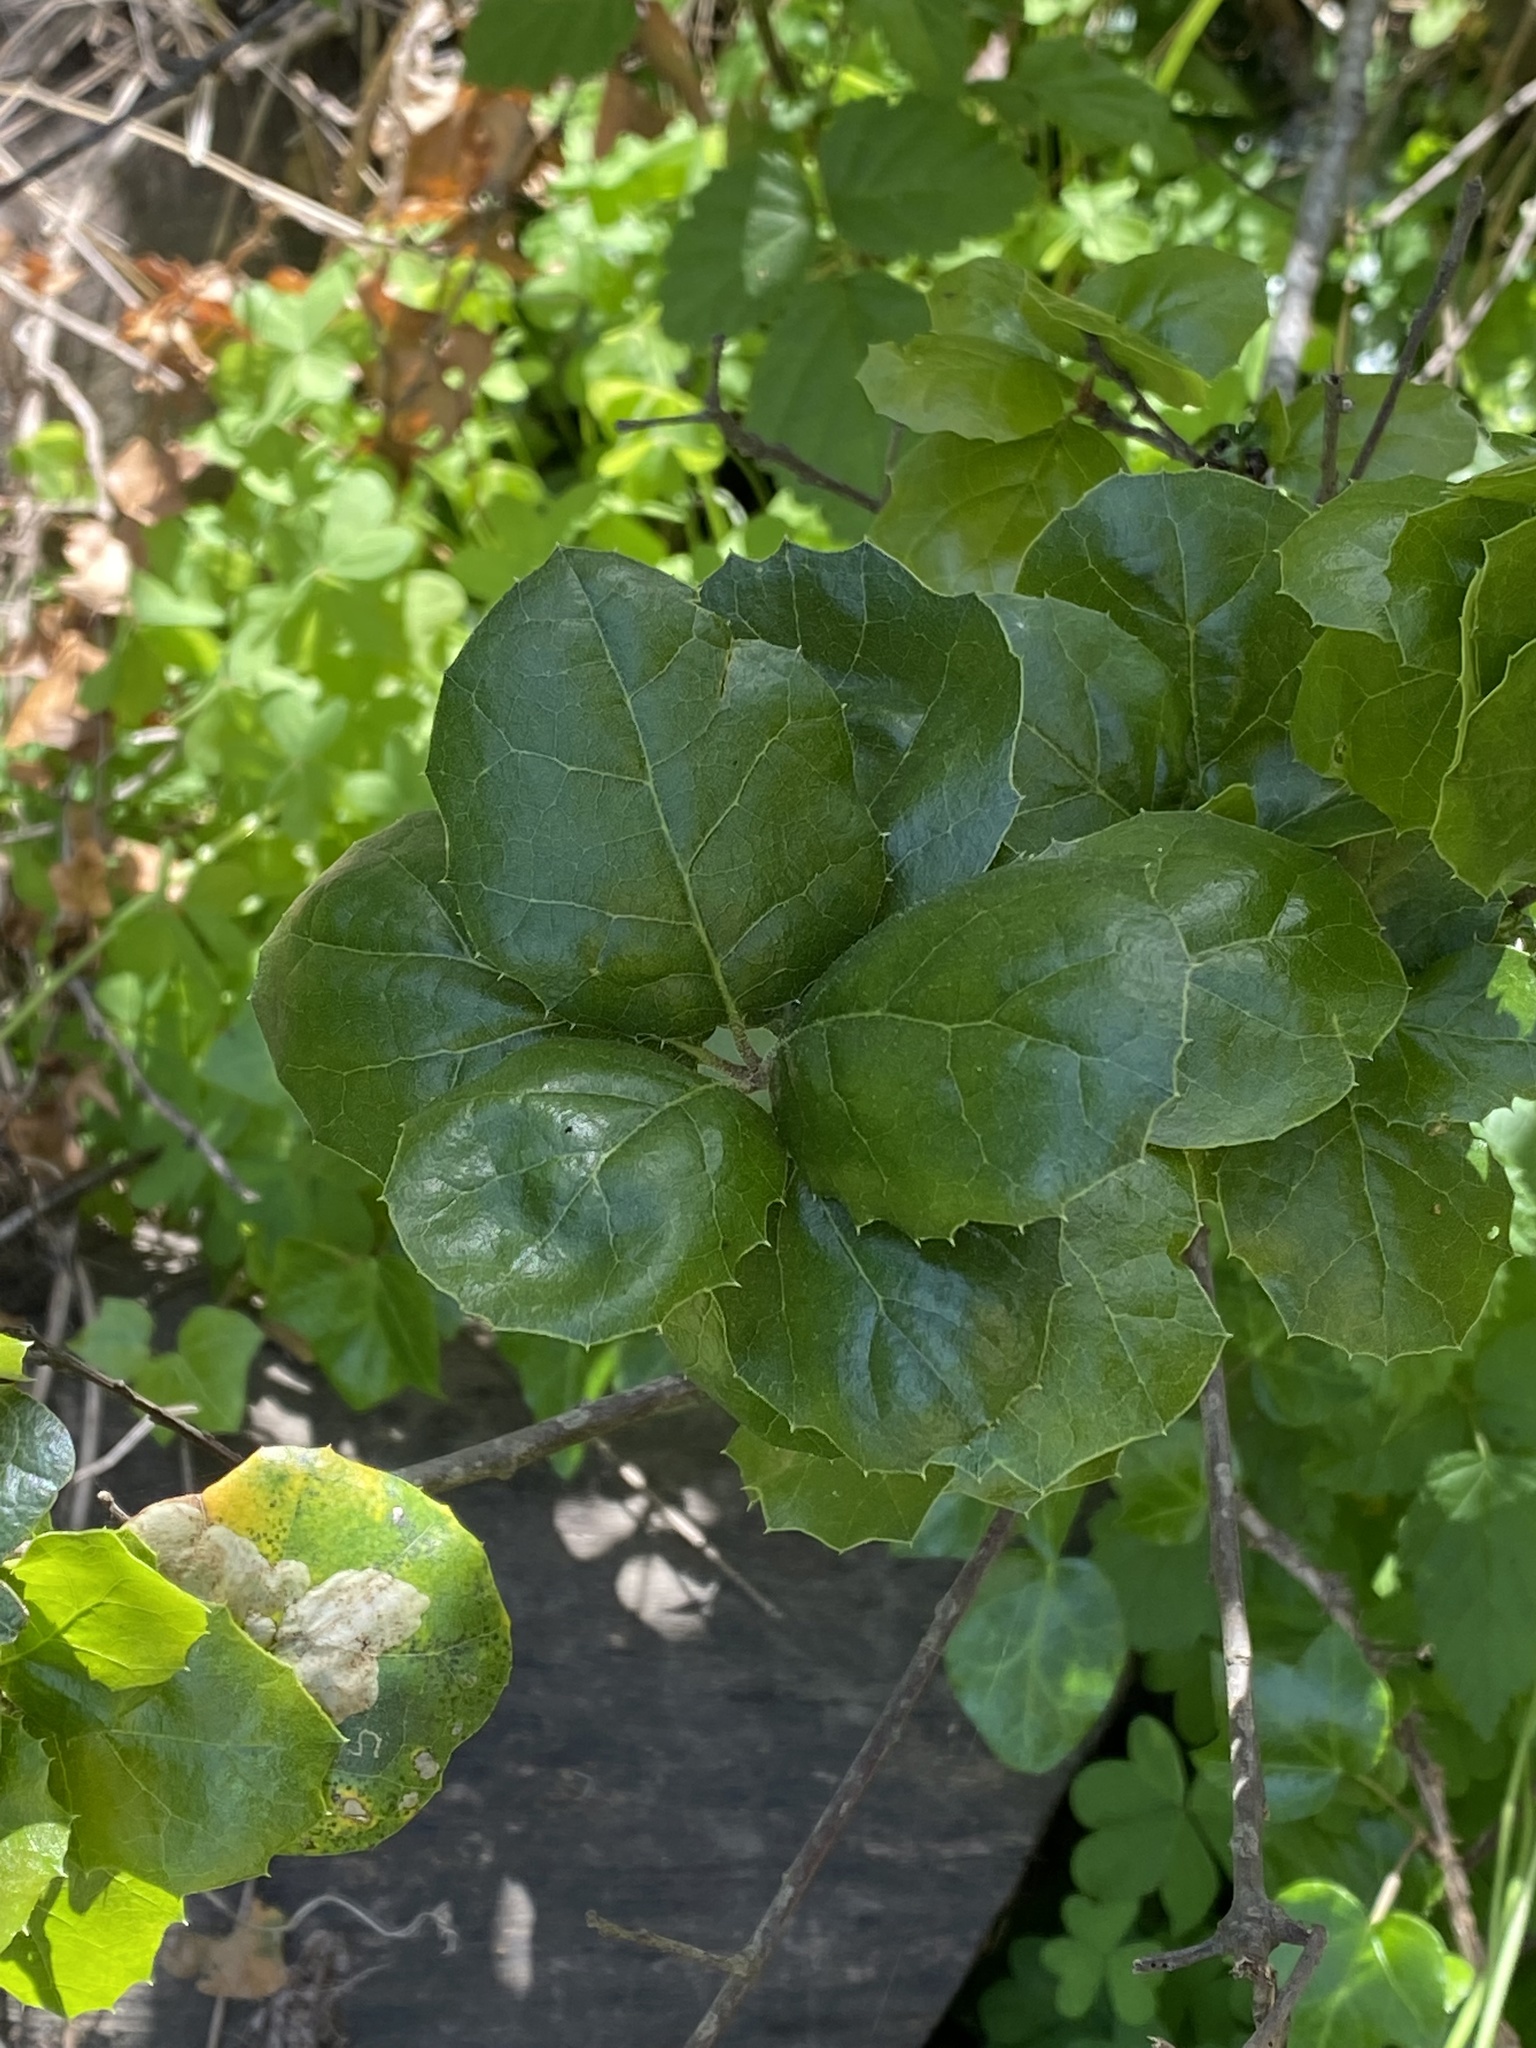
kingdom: Plantae
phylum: Tracheophyta
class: Magnoliopsida
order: Fagales
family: Fagaceae
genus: Quercus
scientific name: Quercus agrifolia
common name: California live oak
